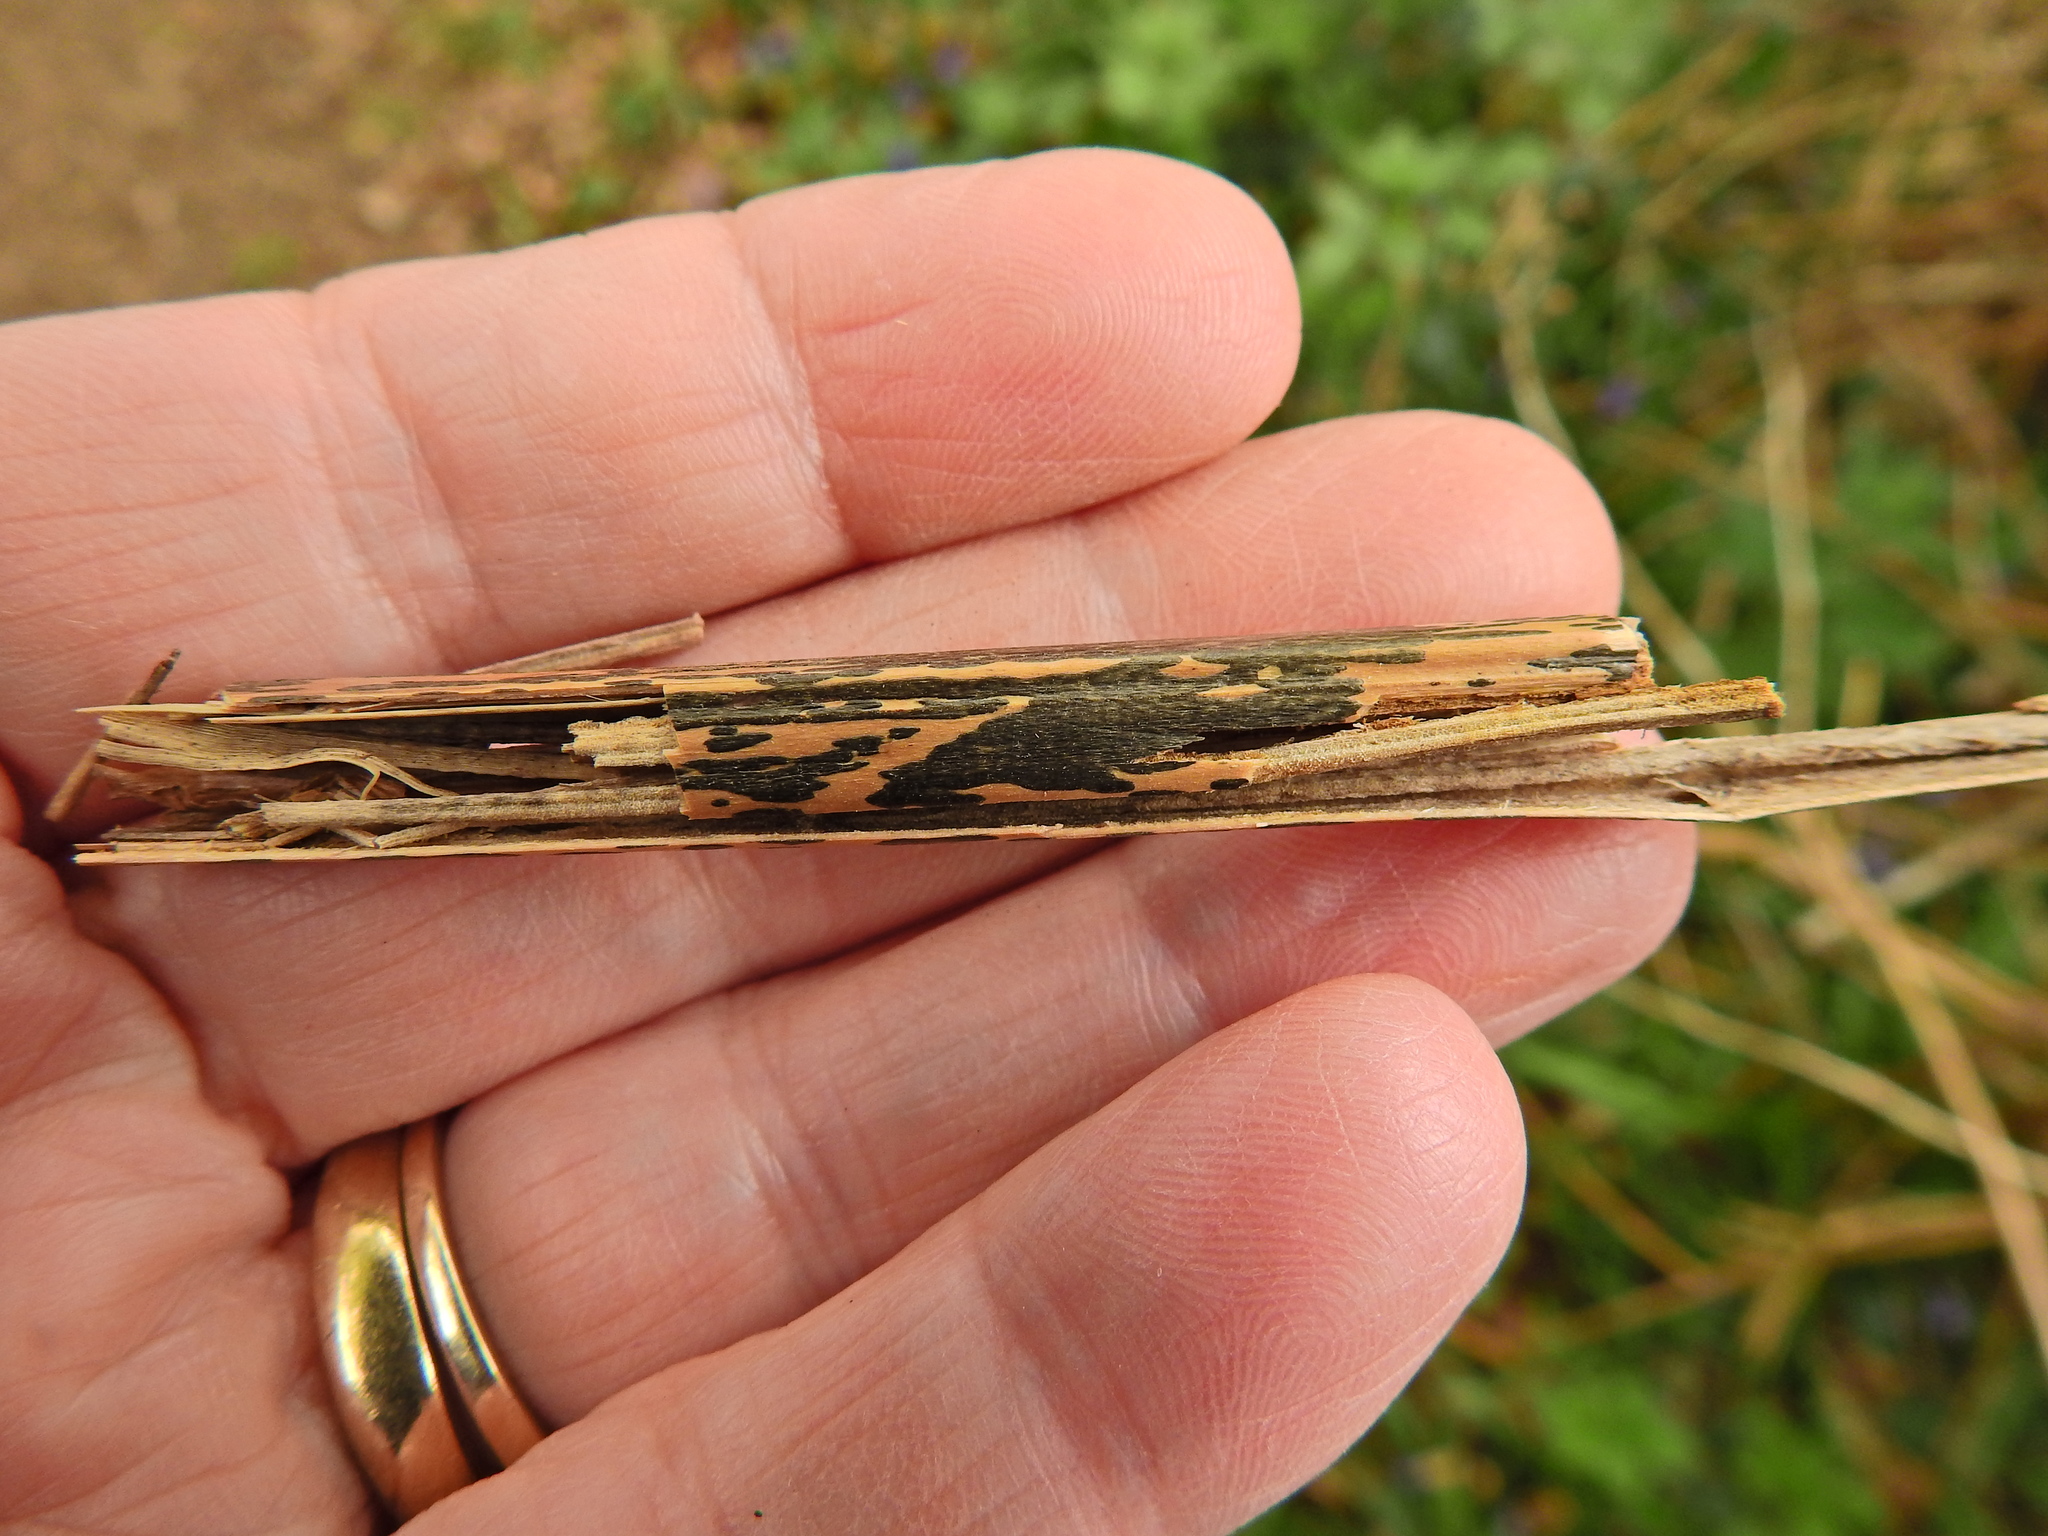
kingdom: Fungi
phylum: Ascomycota
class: Dothideomycetes
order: Pleosporales
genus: Rhopographus
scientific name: Rhopographus filicinus
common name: Bracken map
